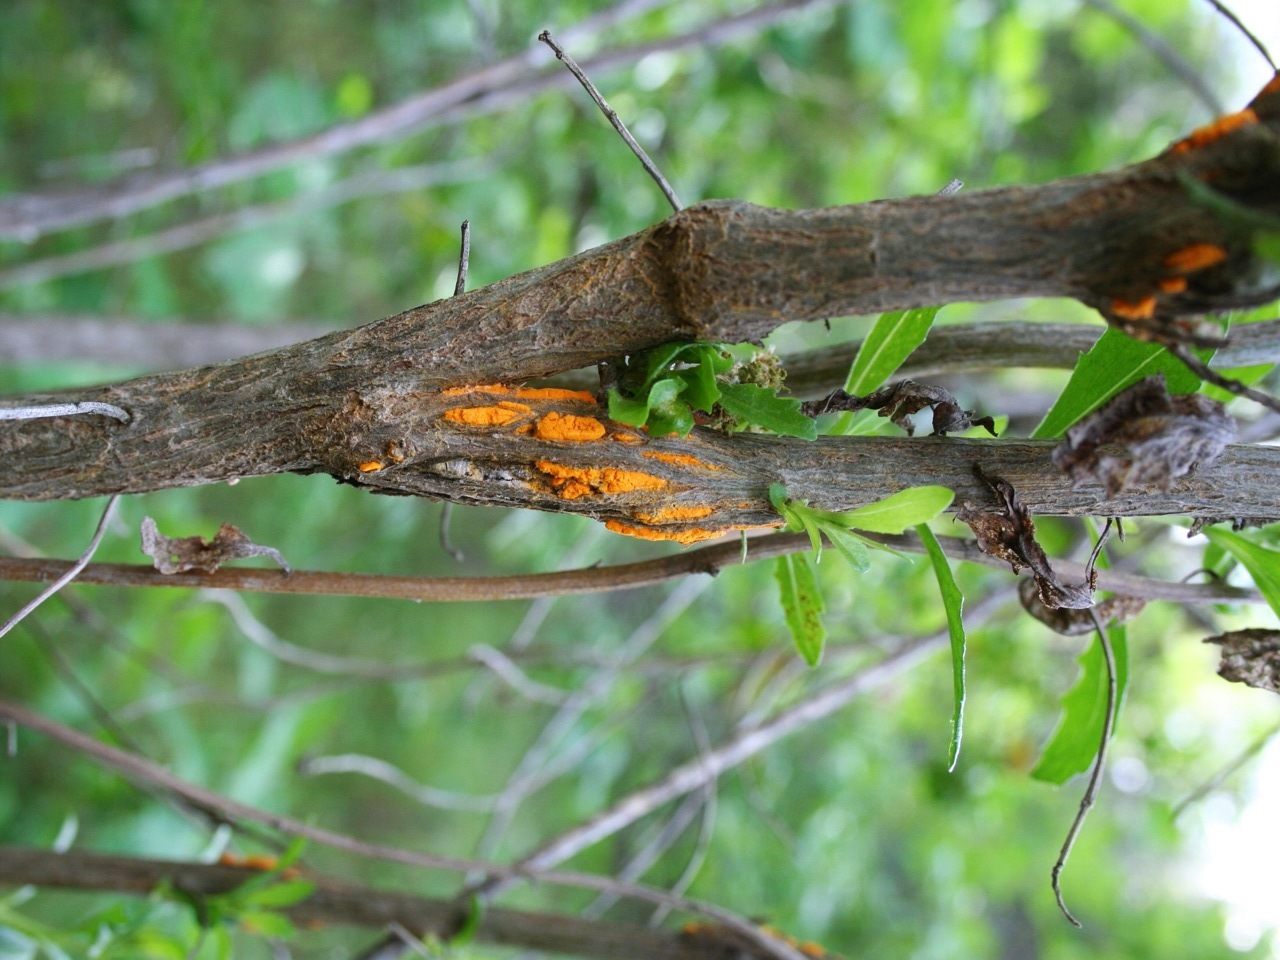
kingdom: Fungi
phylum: Basidiomycota
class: Pucciniomycetes
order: Pucciniales
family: Pucciniaceae
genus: Eriosporangium
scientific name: Eriosporangium evadens
